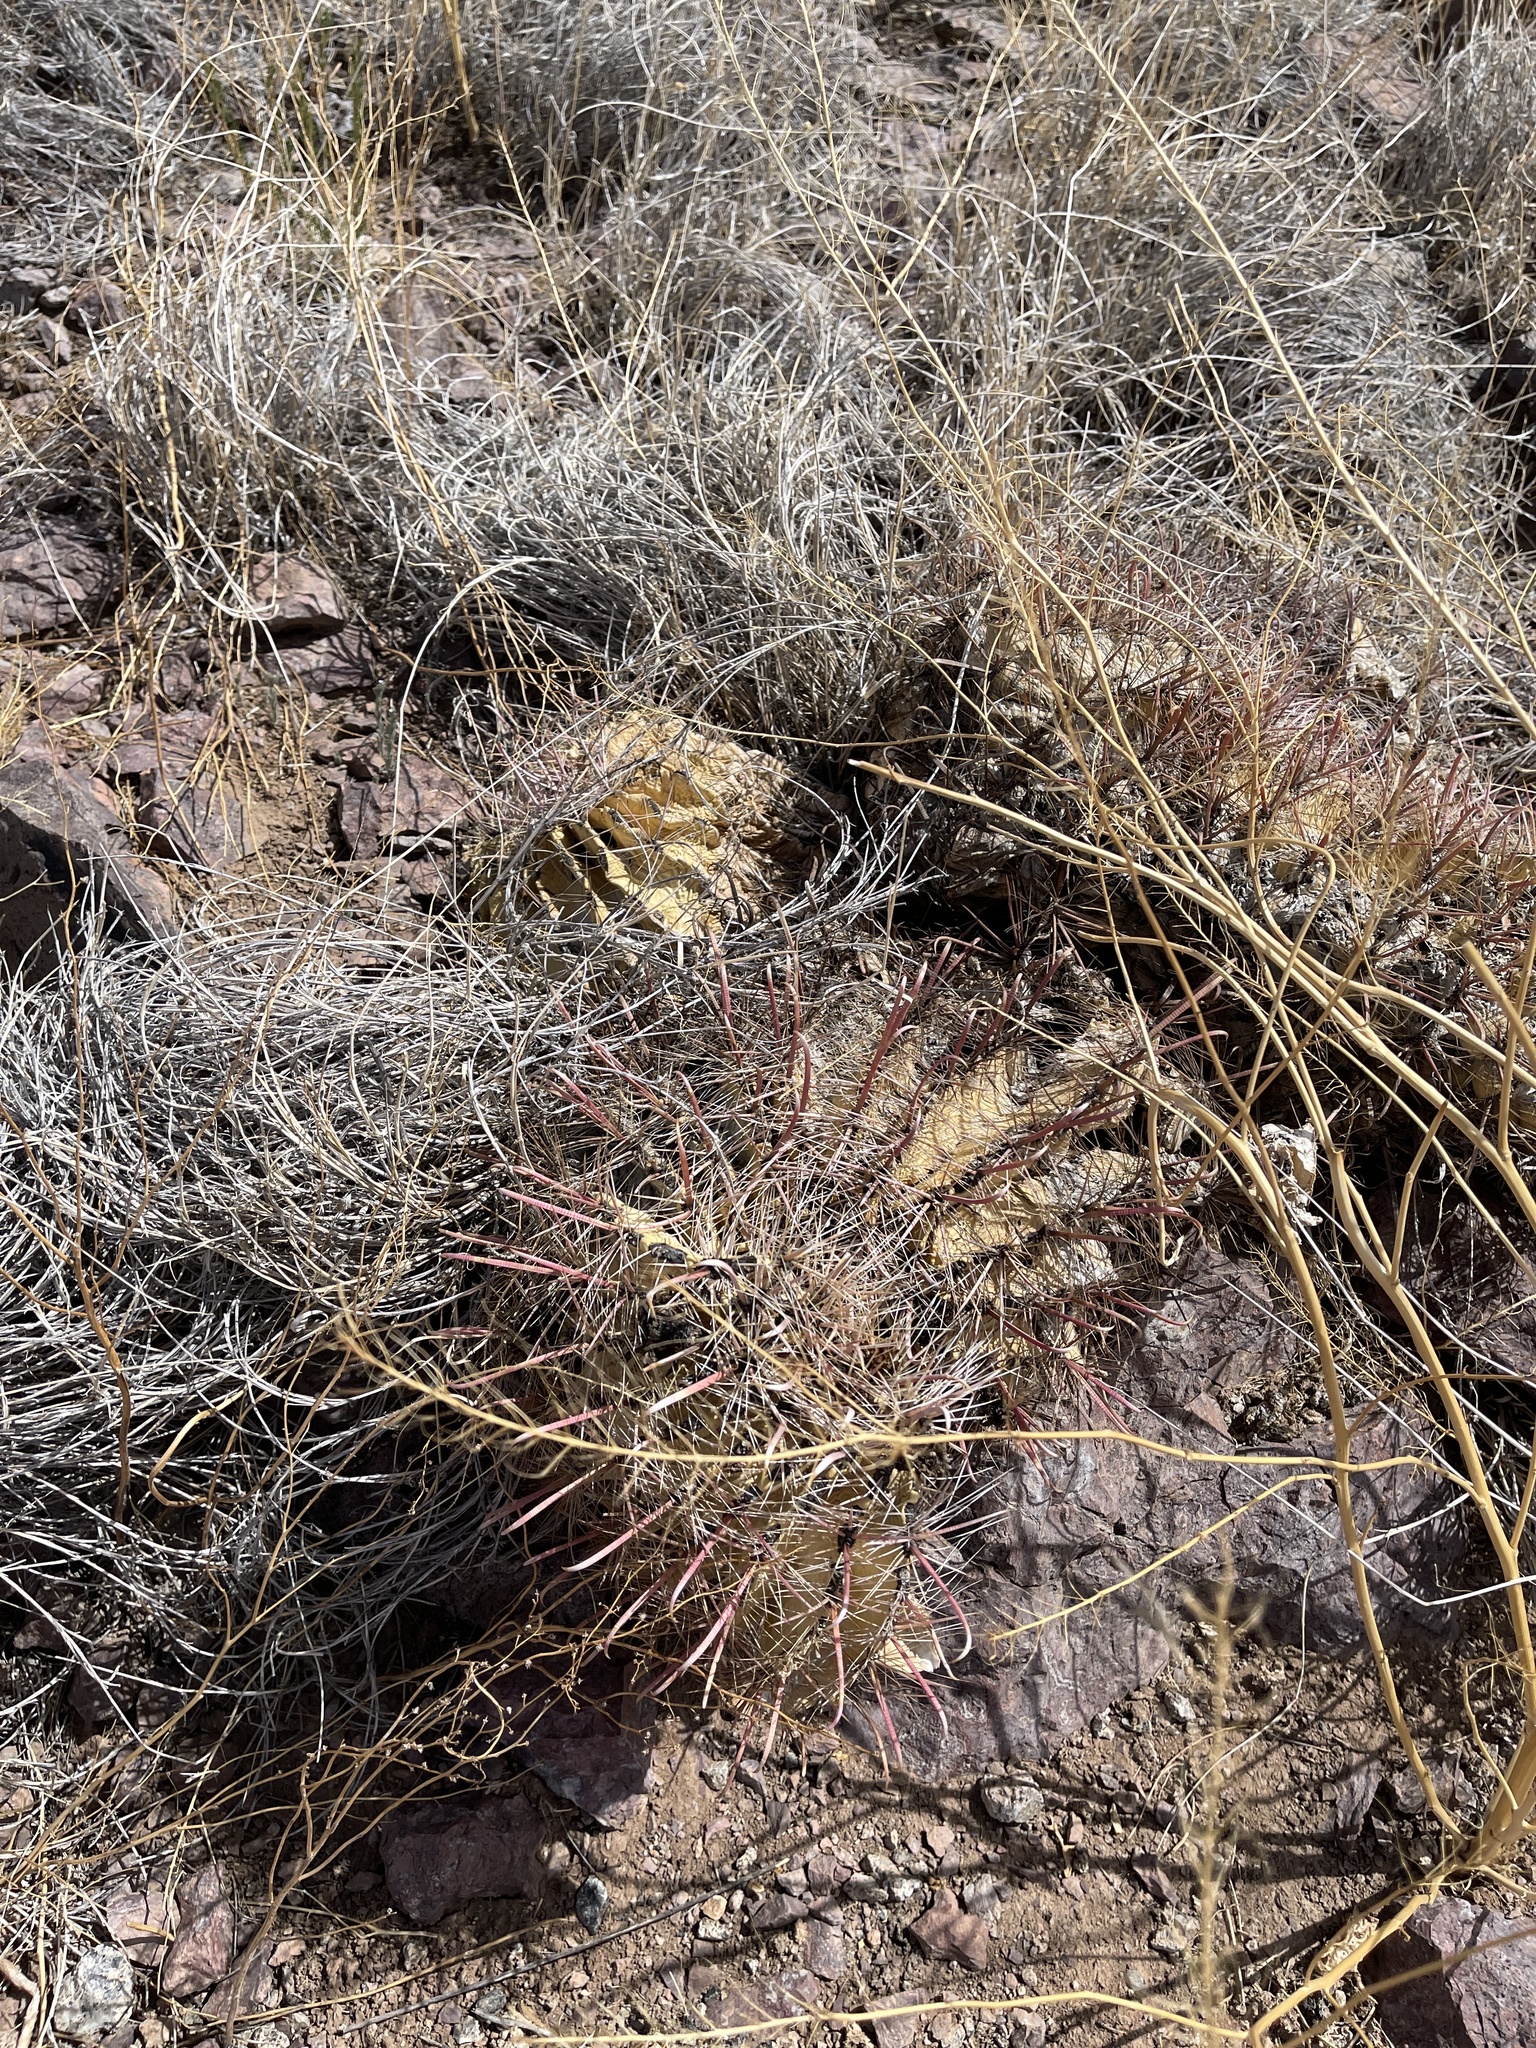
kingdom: Plantae
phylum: Tracheophyta
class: Magnoliopsida
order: Caryophyllales
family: Cactaceae
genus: Ferocactus
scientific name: Ferocactus wislizeni
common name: Candy barrel cactus
